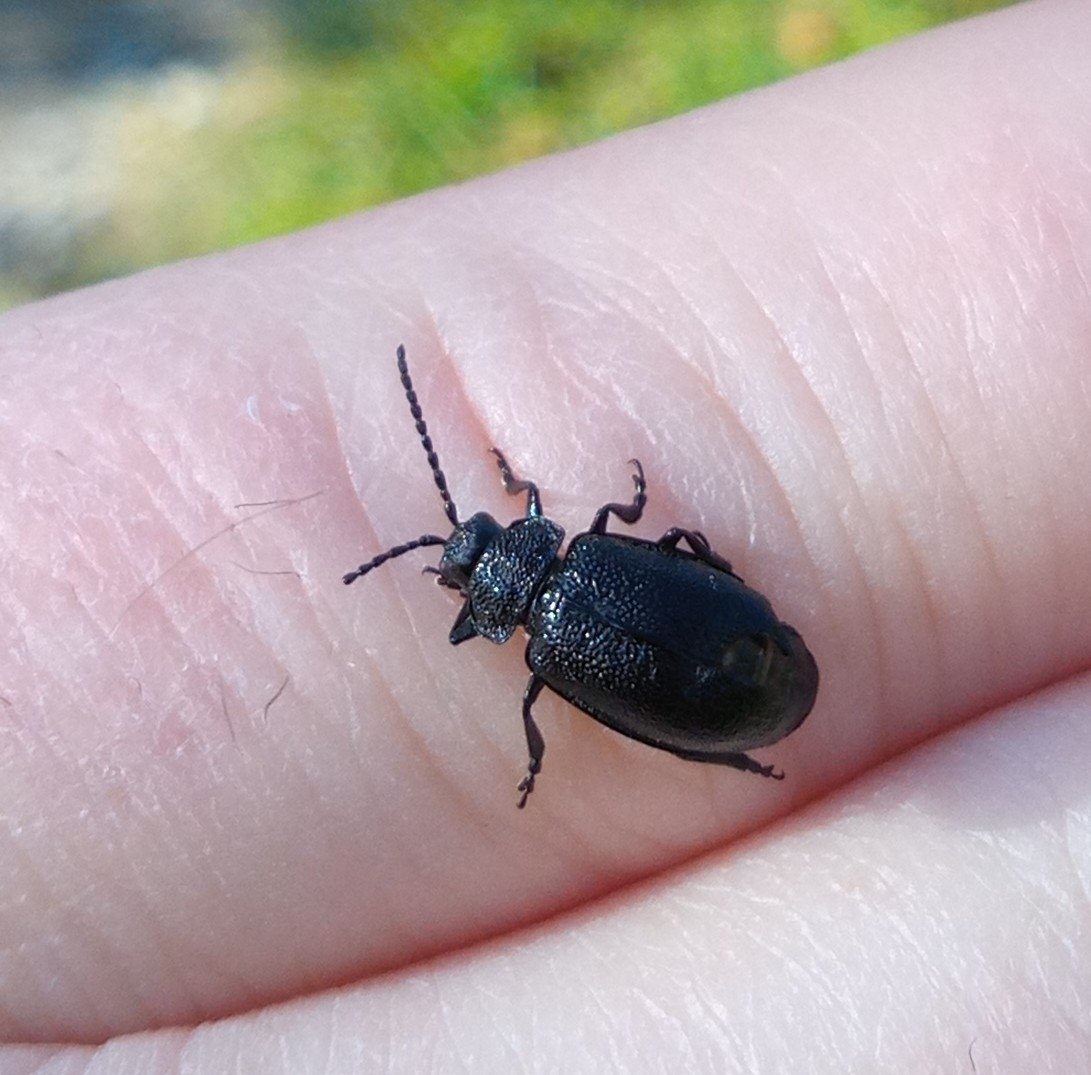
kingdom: Animalia
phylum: Arthropoda
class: Insecta
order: Coleoptera
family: Chrysomelidae
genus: Galeruca
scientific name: Galeruca tanaceti
